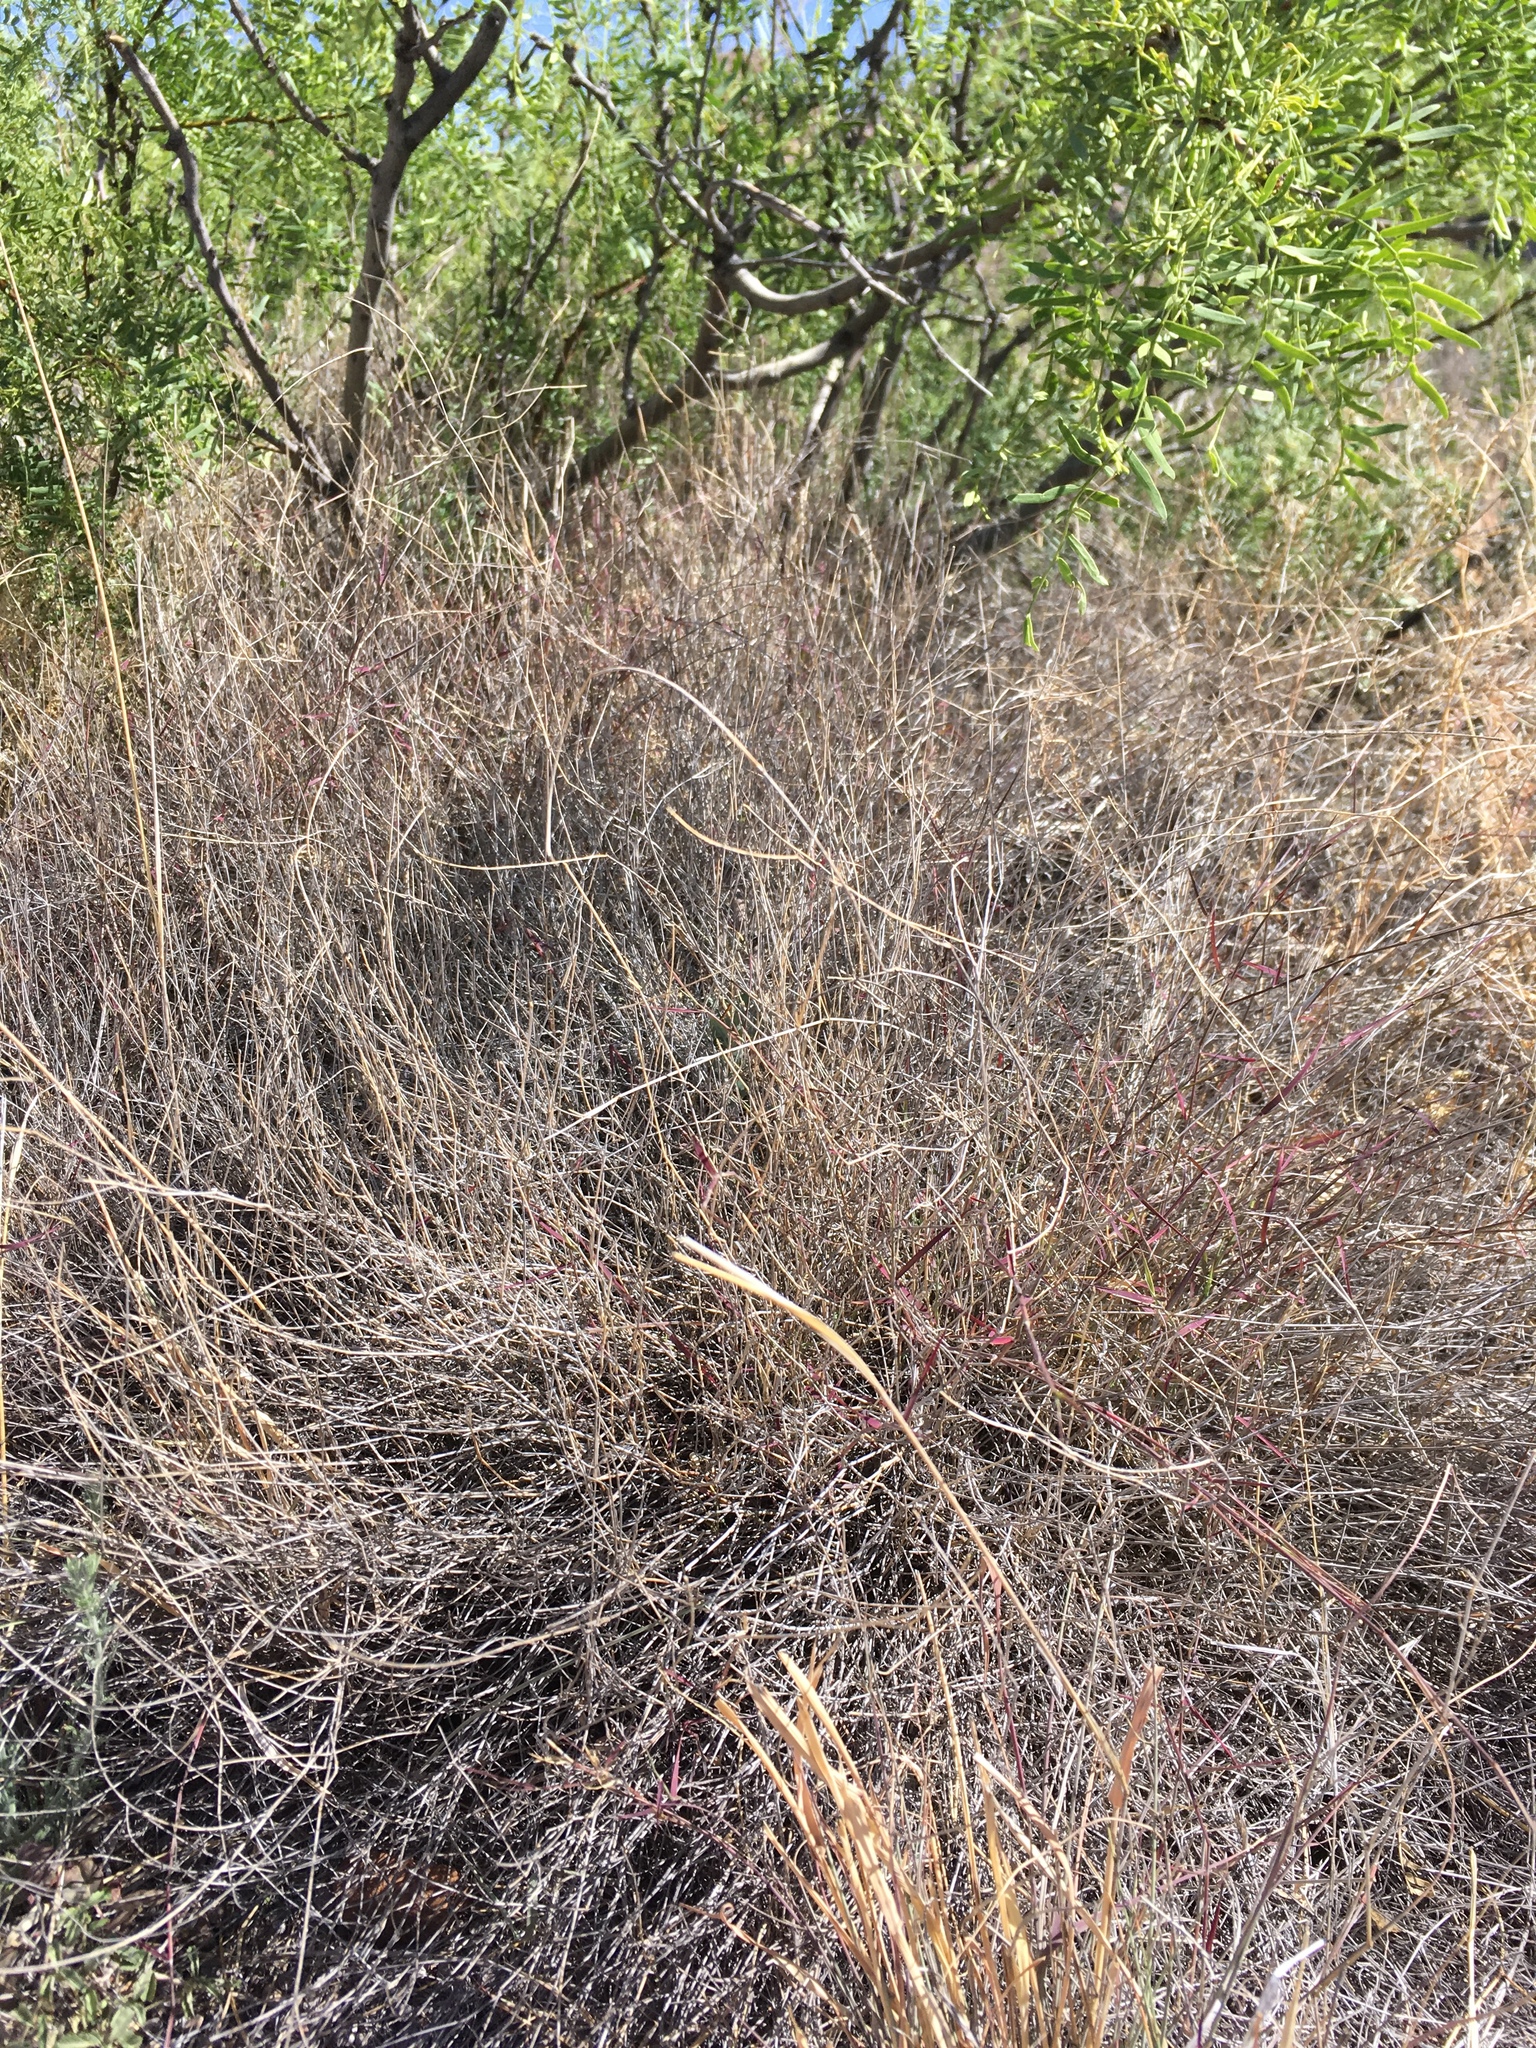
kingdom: Plantae
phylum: Tracheophyta
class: Liliopsida
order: Poales
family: Poaceae
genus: Muhlenbergia
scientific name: Muhlenbergia porteri
